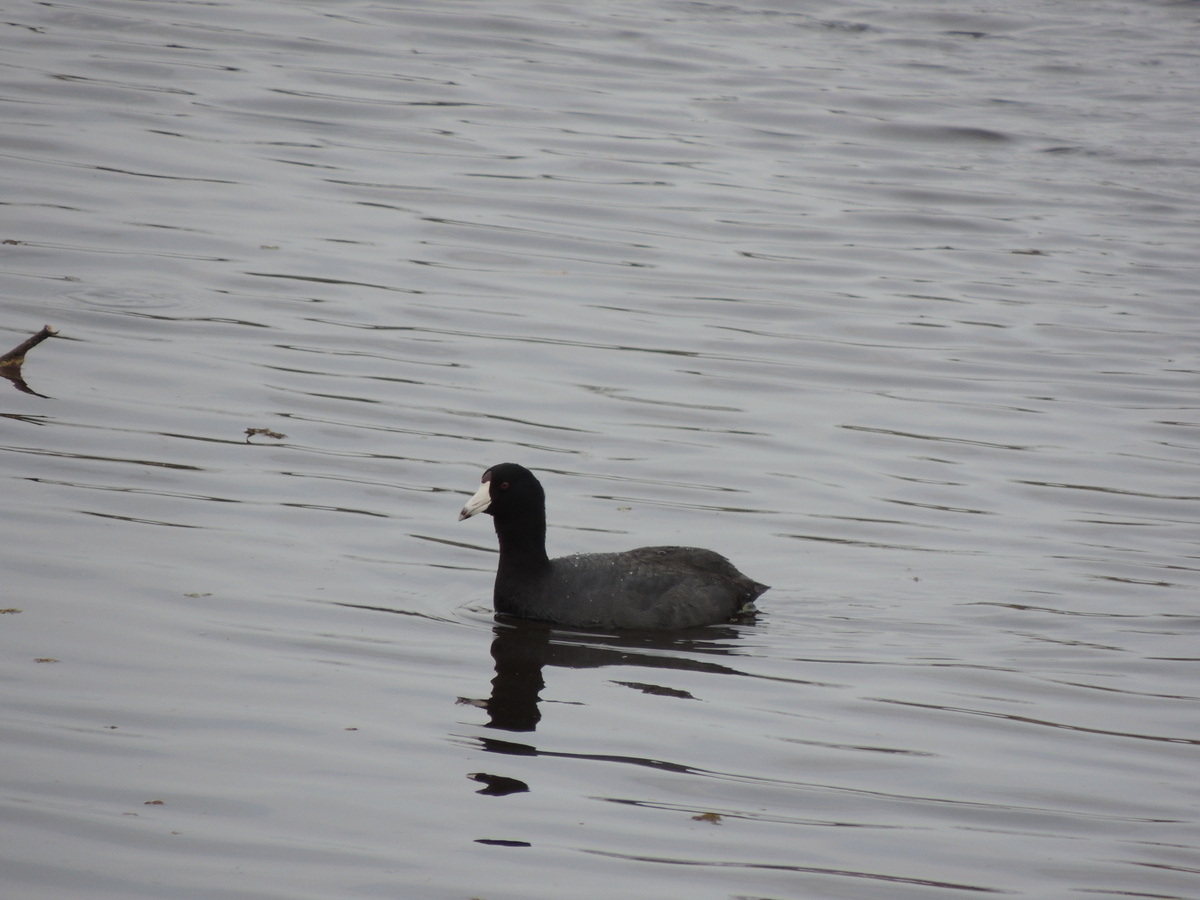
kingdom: Animalia
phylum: Chordata
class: Aves
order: Gruiformes
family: Rallidae
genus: Fulica
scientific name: Fulica americana
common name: American coot
